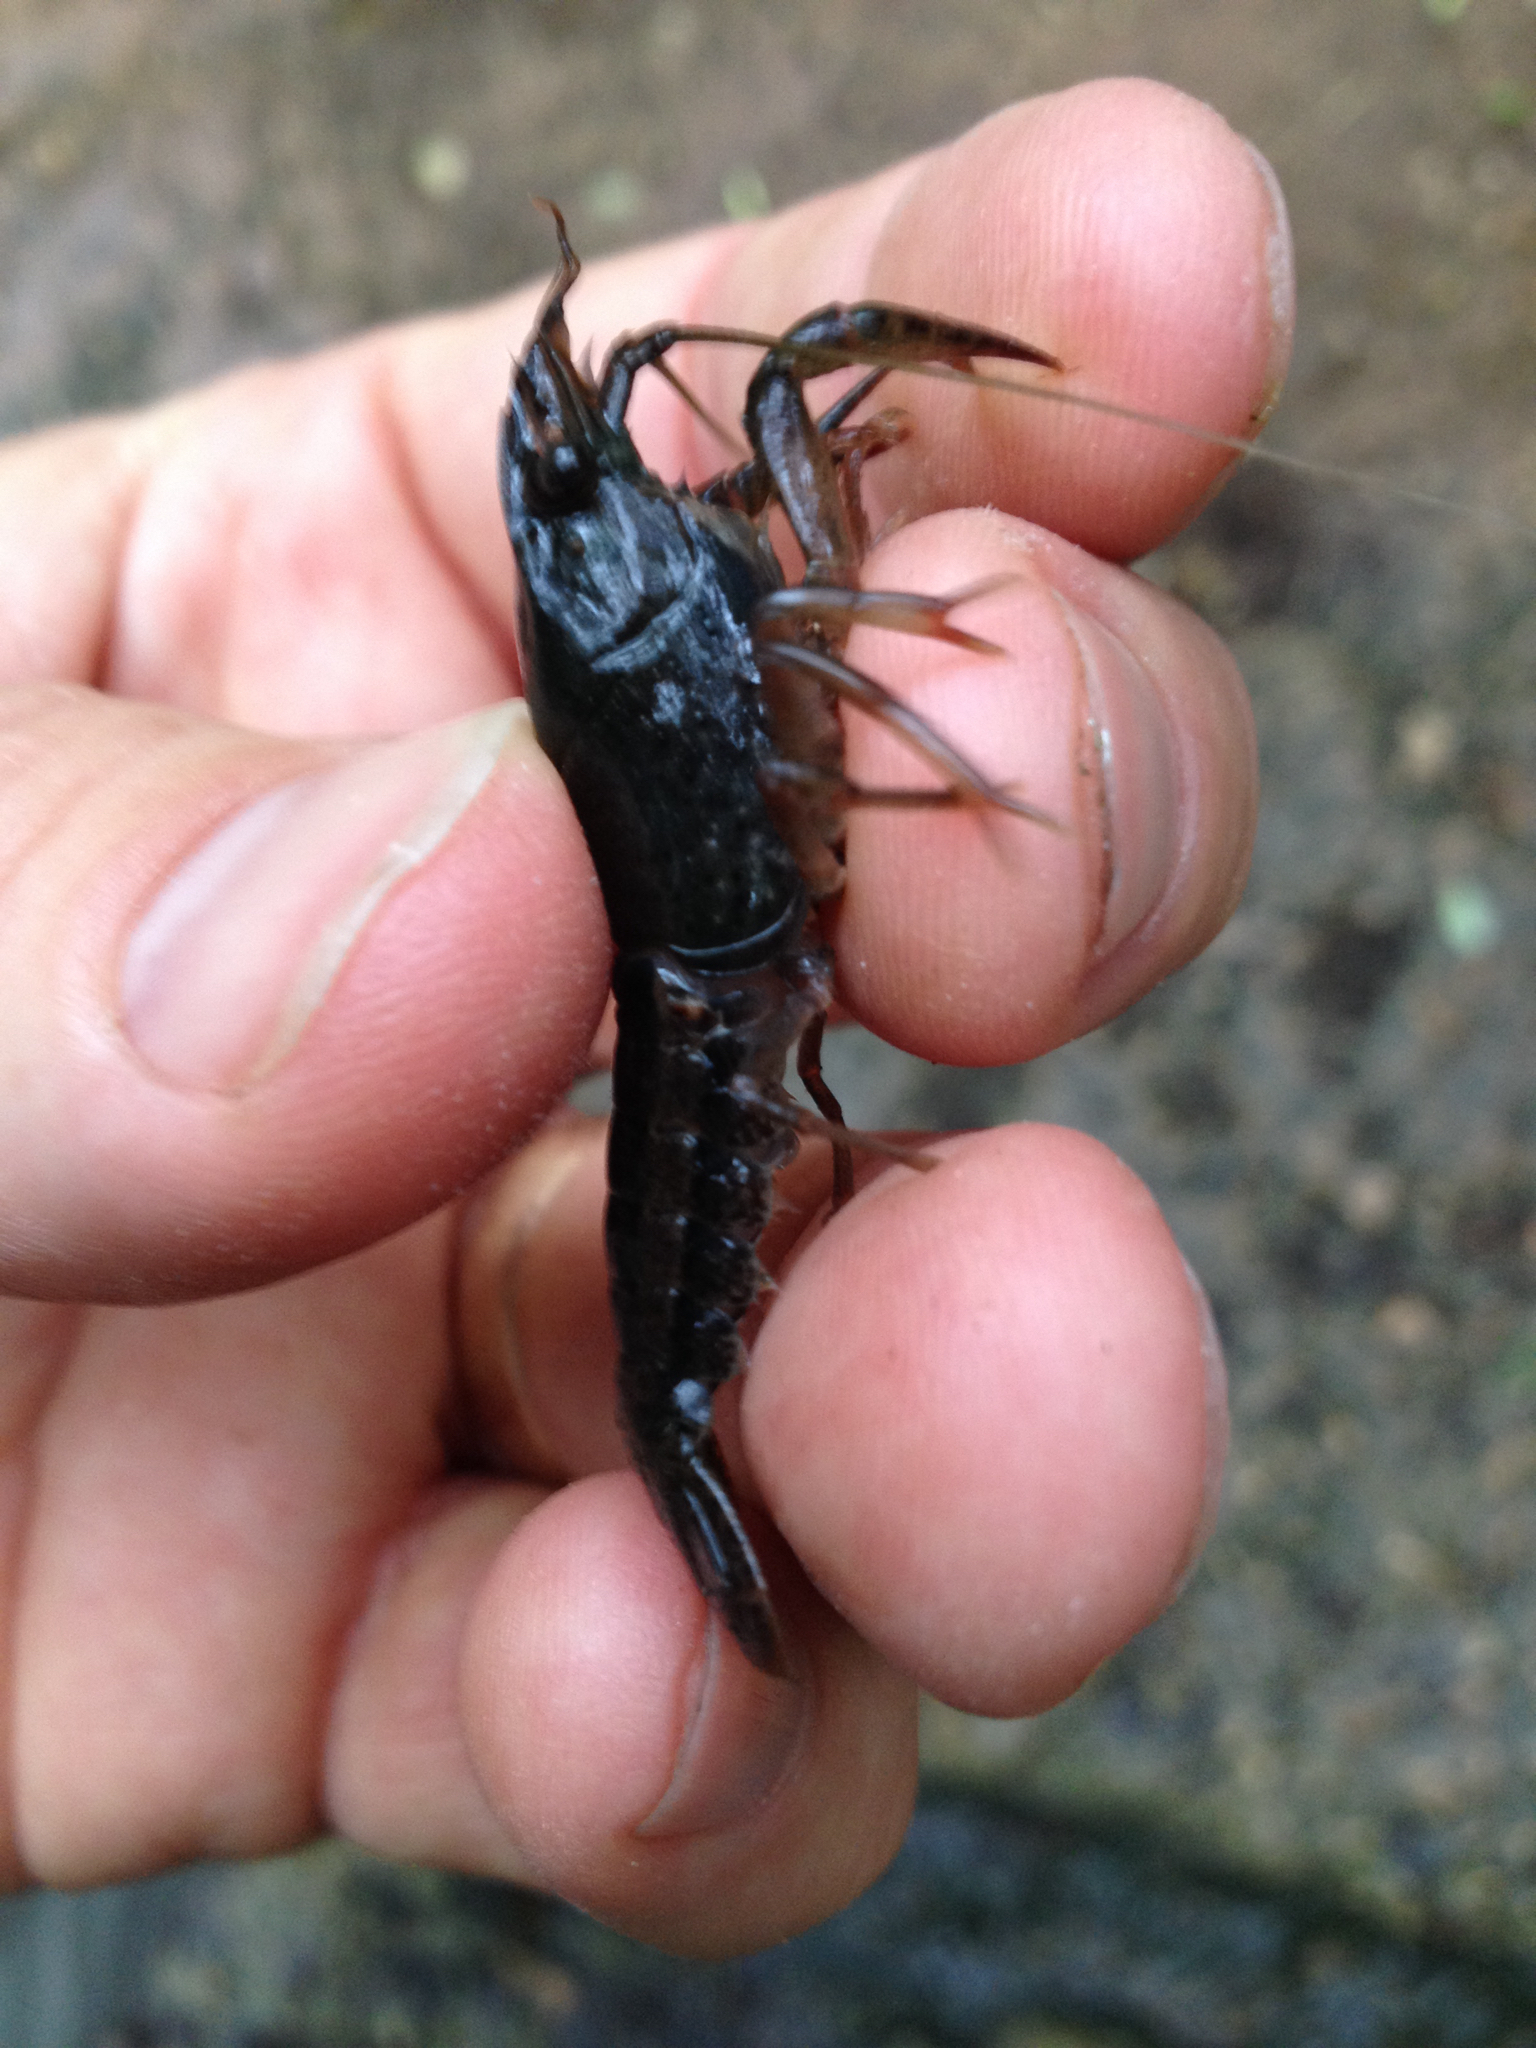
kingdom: Animalia
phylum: Arthropoda
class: Malacostraca
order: Decapoda
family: Cambaridae
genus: Procambarus
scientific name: Procambarus clarkii
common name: Red swamp crayfish
